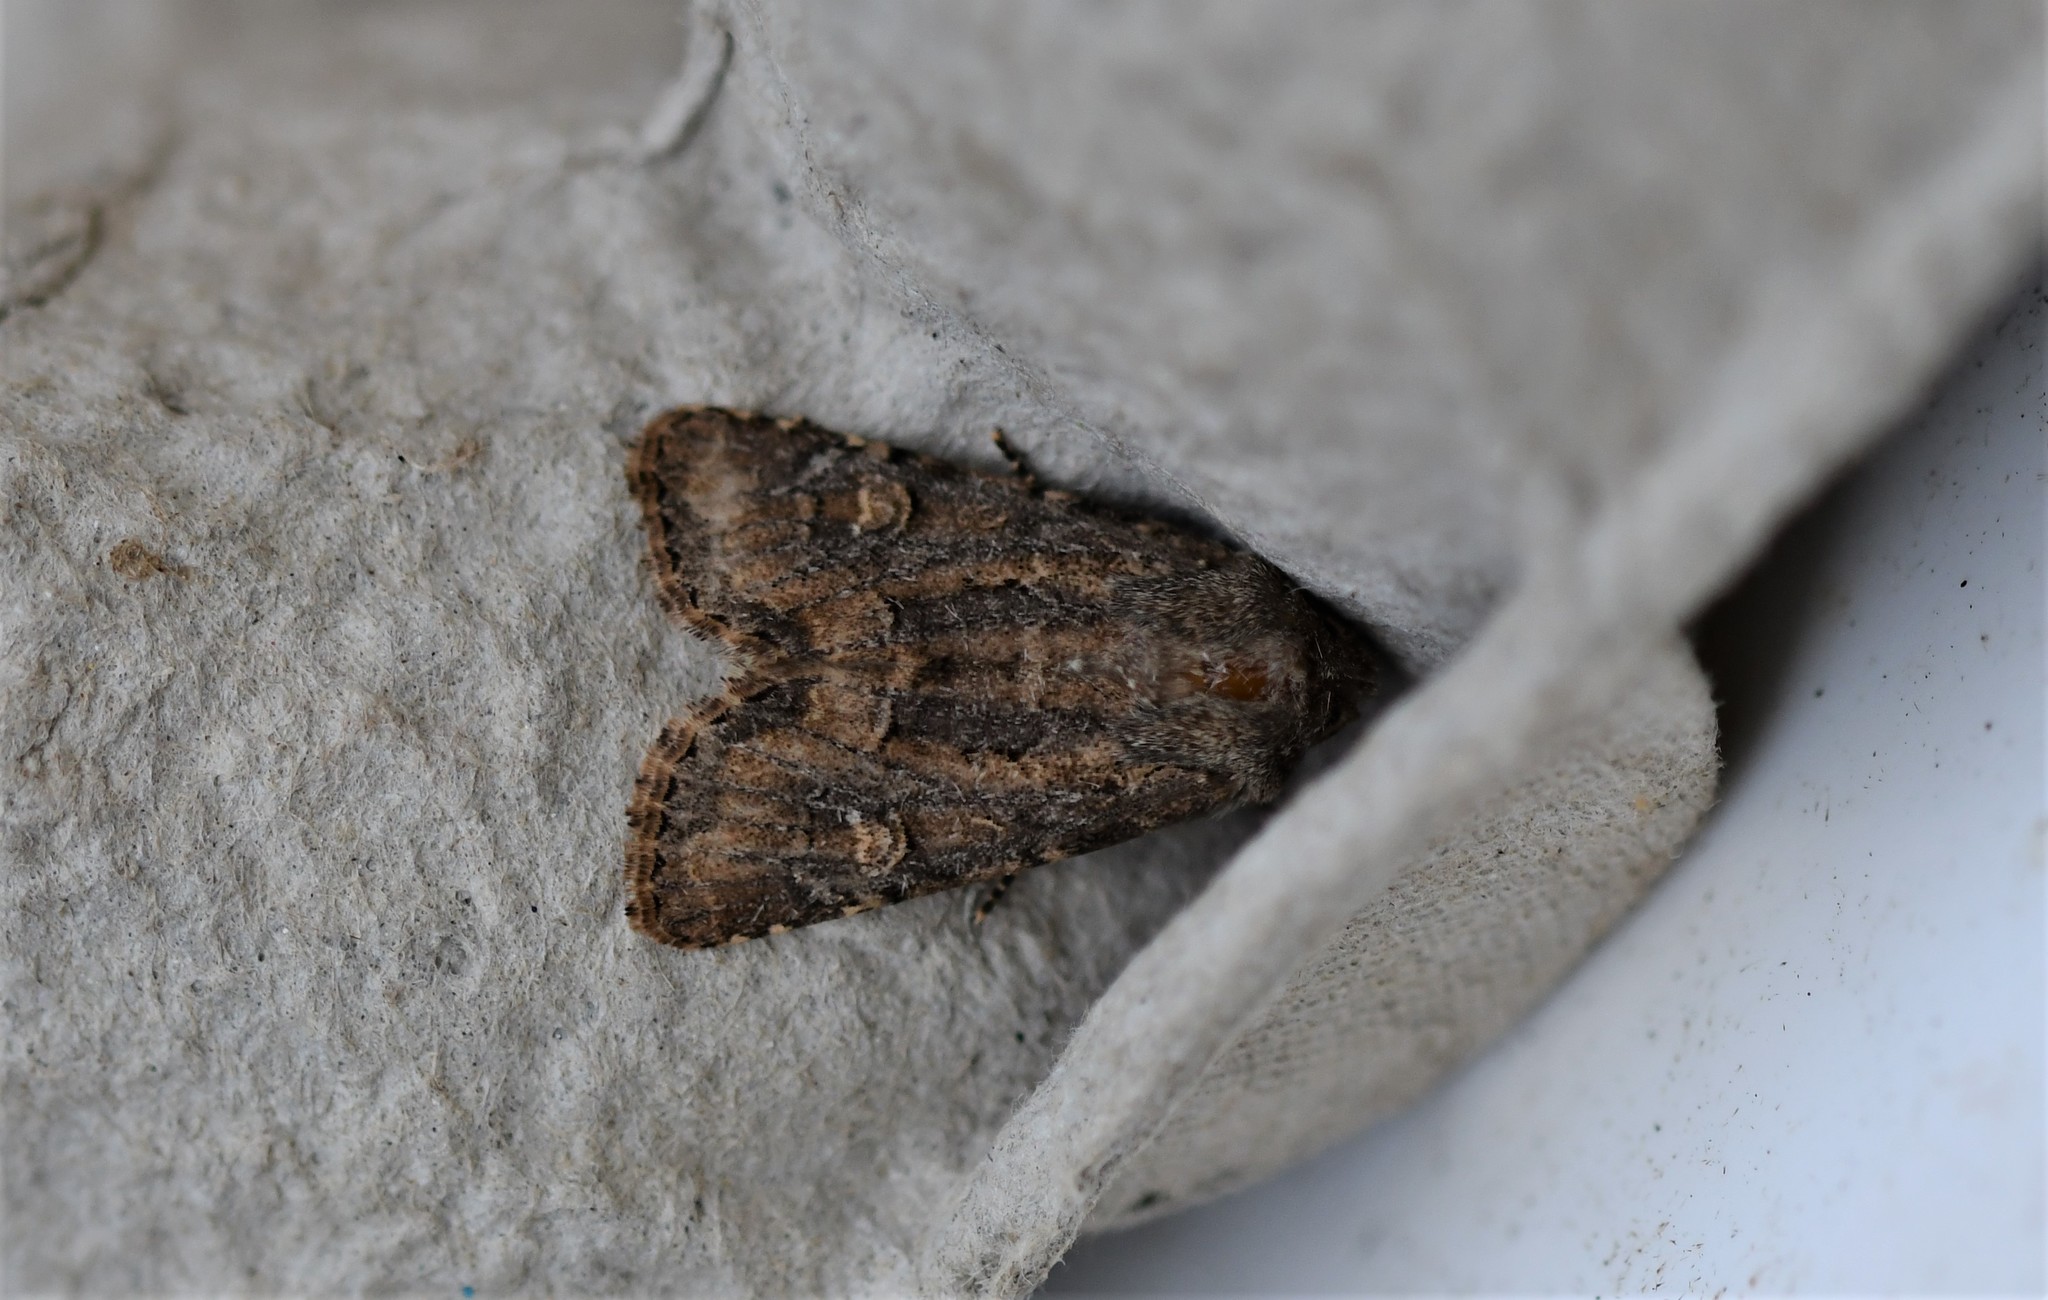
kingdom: Animalia
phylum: Arthropoda
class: Insecta
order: Lepidoptera
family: Noctuidae
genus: Luperina
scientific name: Luperina testacea
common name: Flounced rustic
